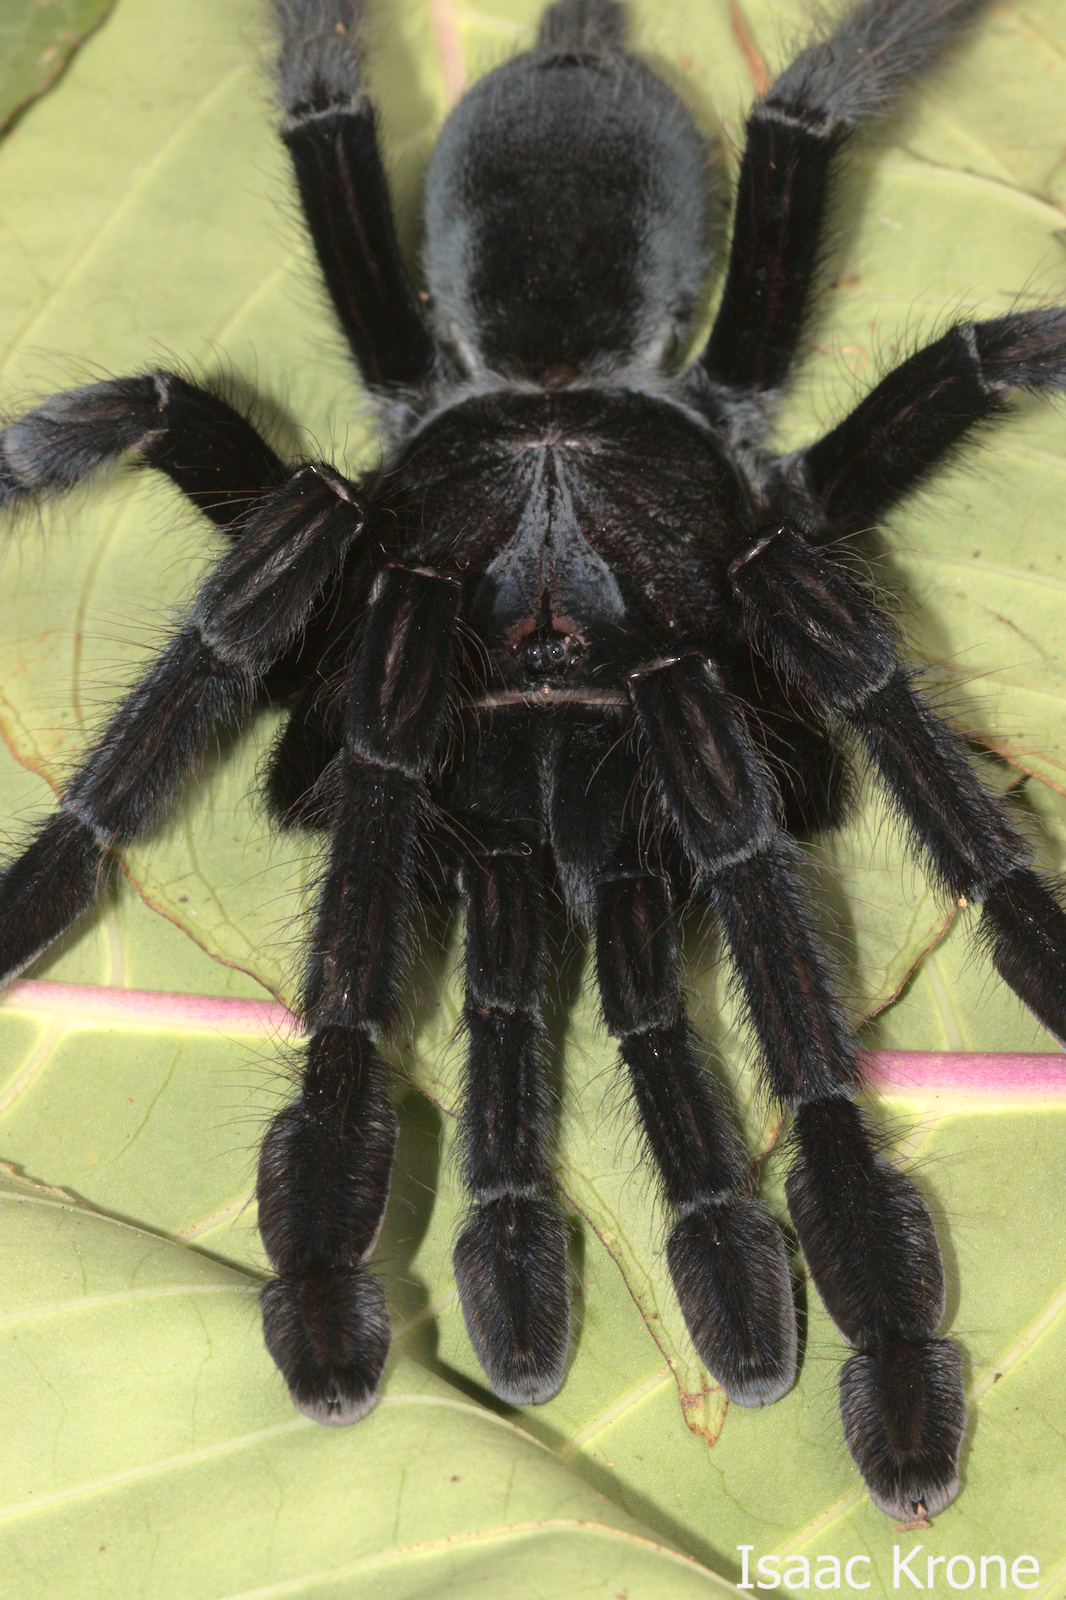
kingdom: Animalia
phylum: Arthropoda
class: Arachnida
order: Araneae
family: Theraphosidae
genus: Lampropelma
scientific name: Lampropelma nigerrimum
